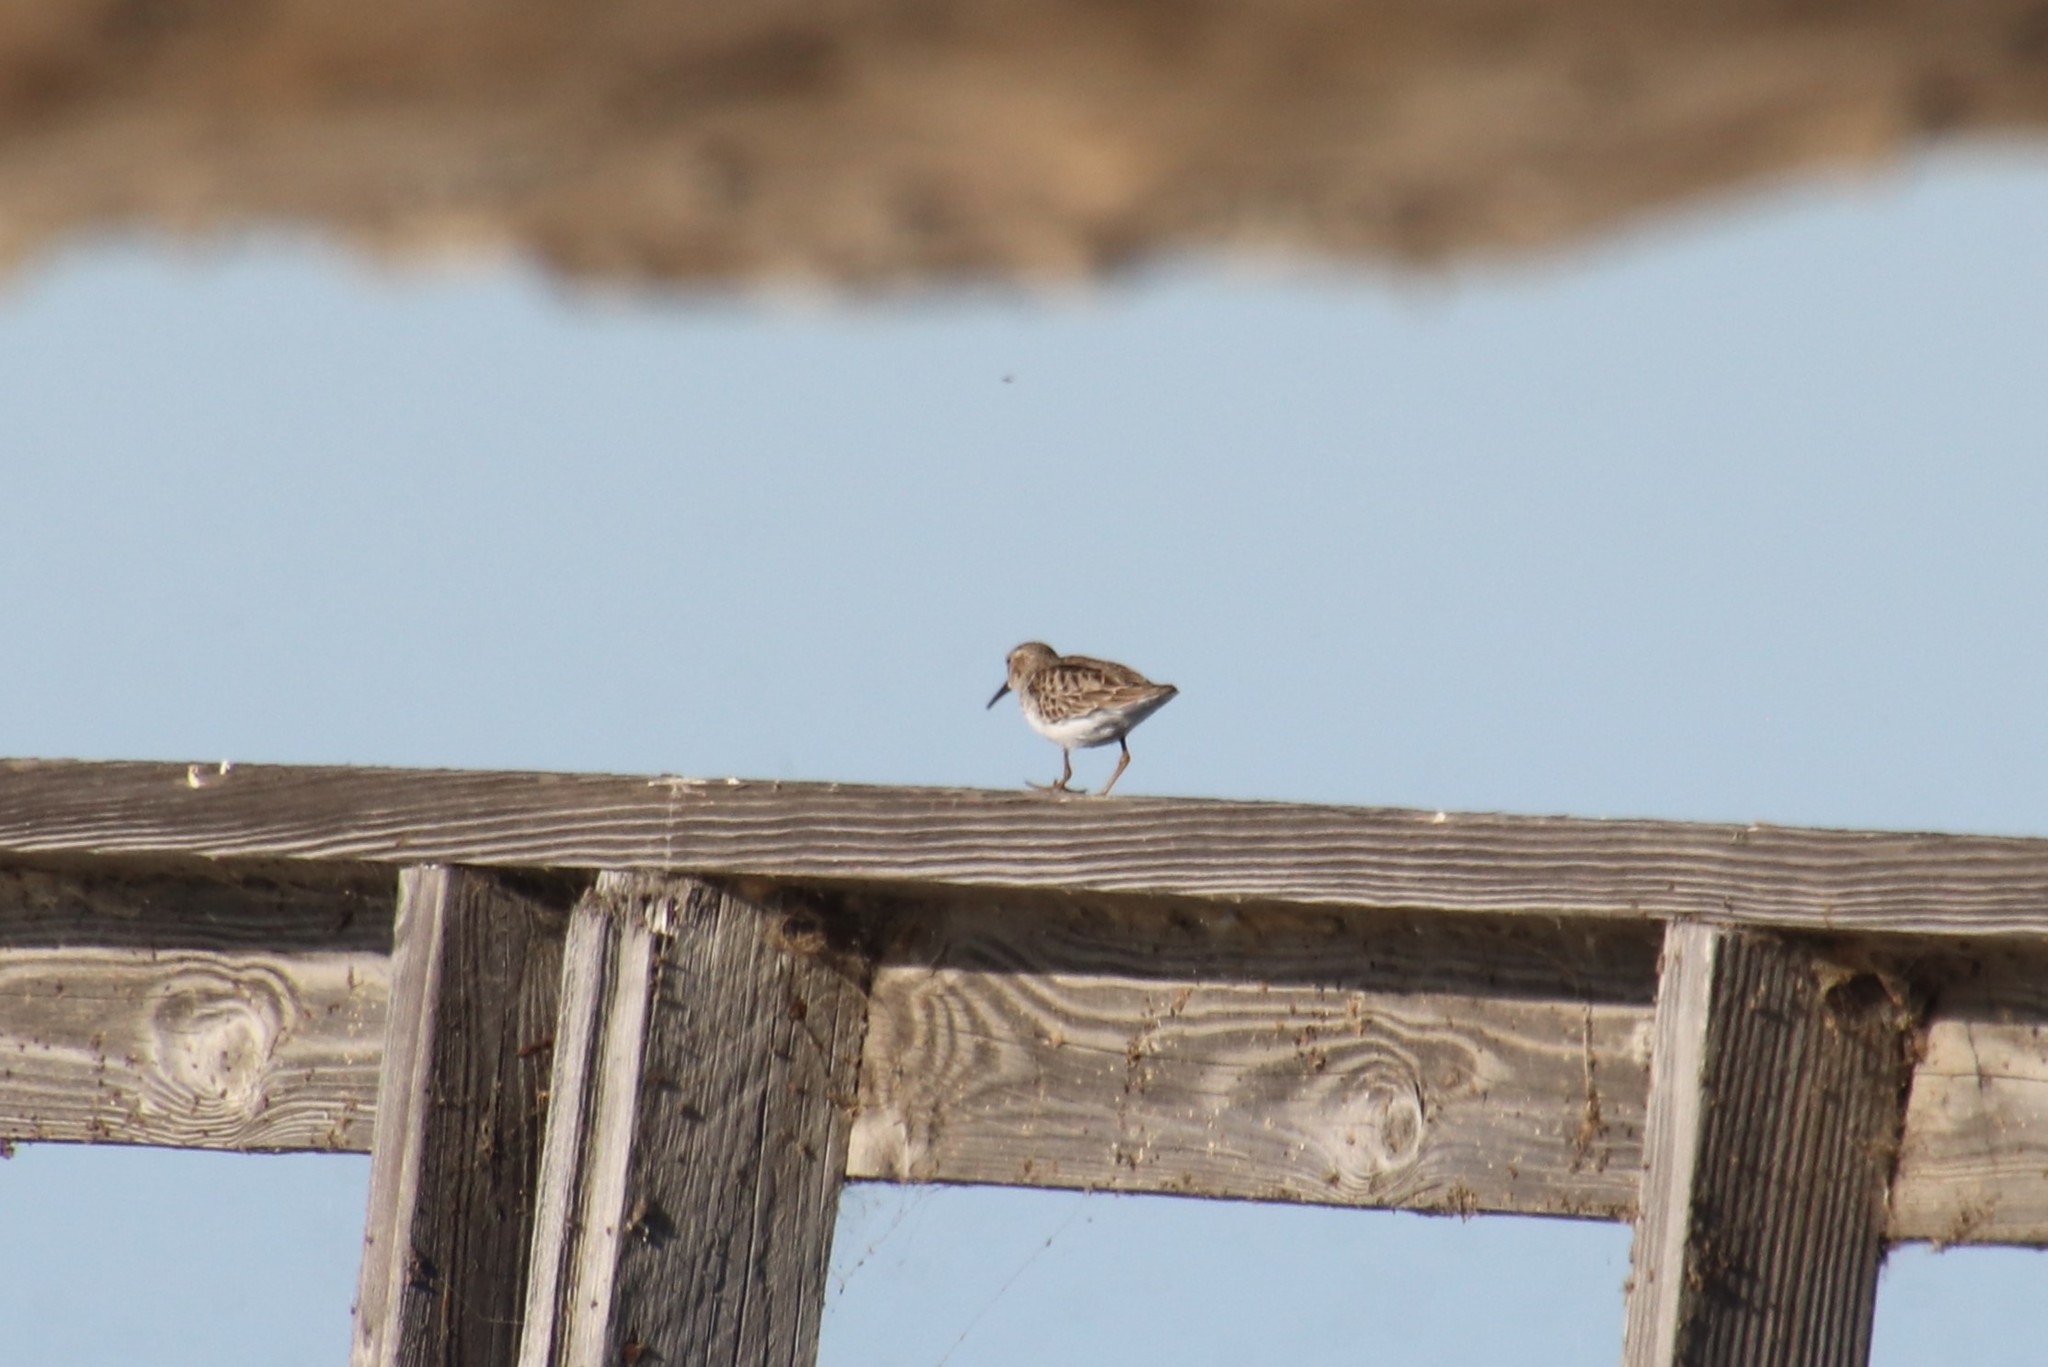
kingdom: Animalia
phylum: Chordata
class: Aves
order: Charadriiformes
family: Scolopacidae
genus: Calidris
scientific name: Calidris minutilla
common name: Least sandpiper
